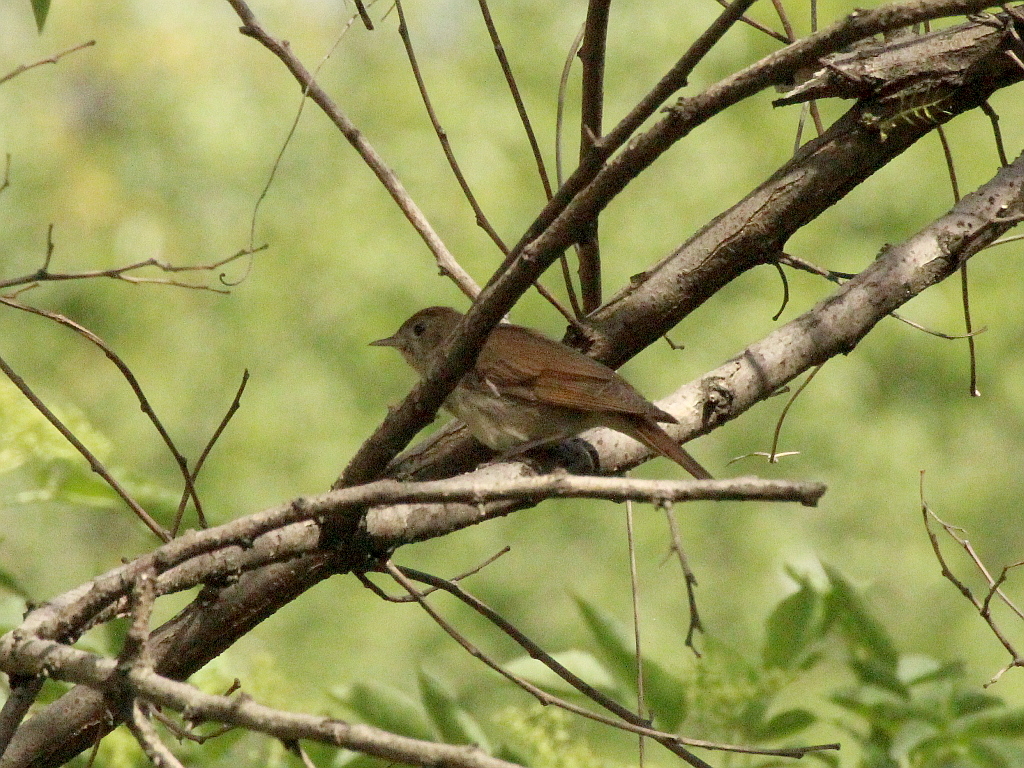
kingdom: Animalia
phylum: Chordata
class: Aves
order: Passeriformes
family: Muscicapidae
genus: Luscinia
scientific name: Luscinia megarhynchos
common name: Common nightingale
